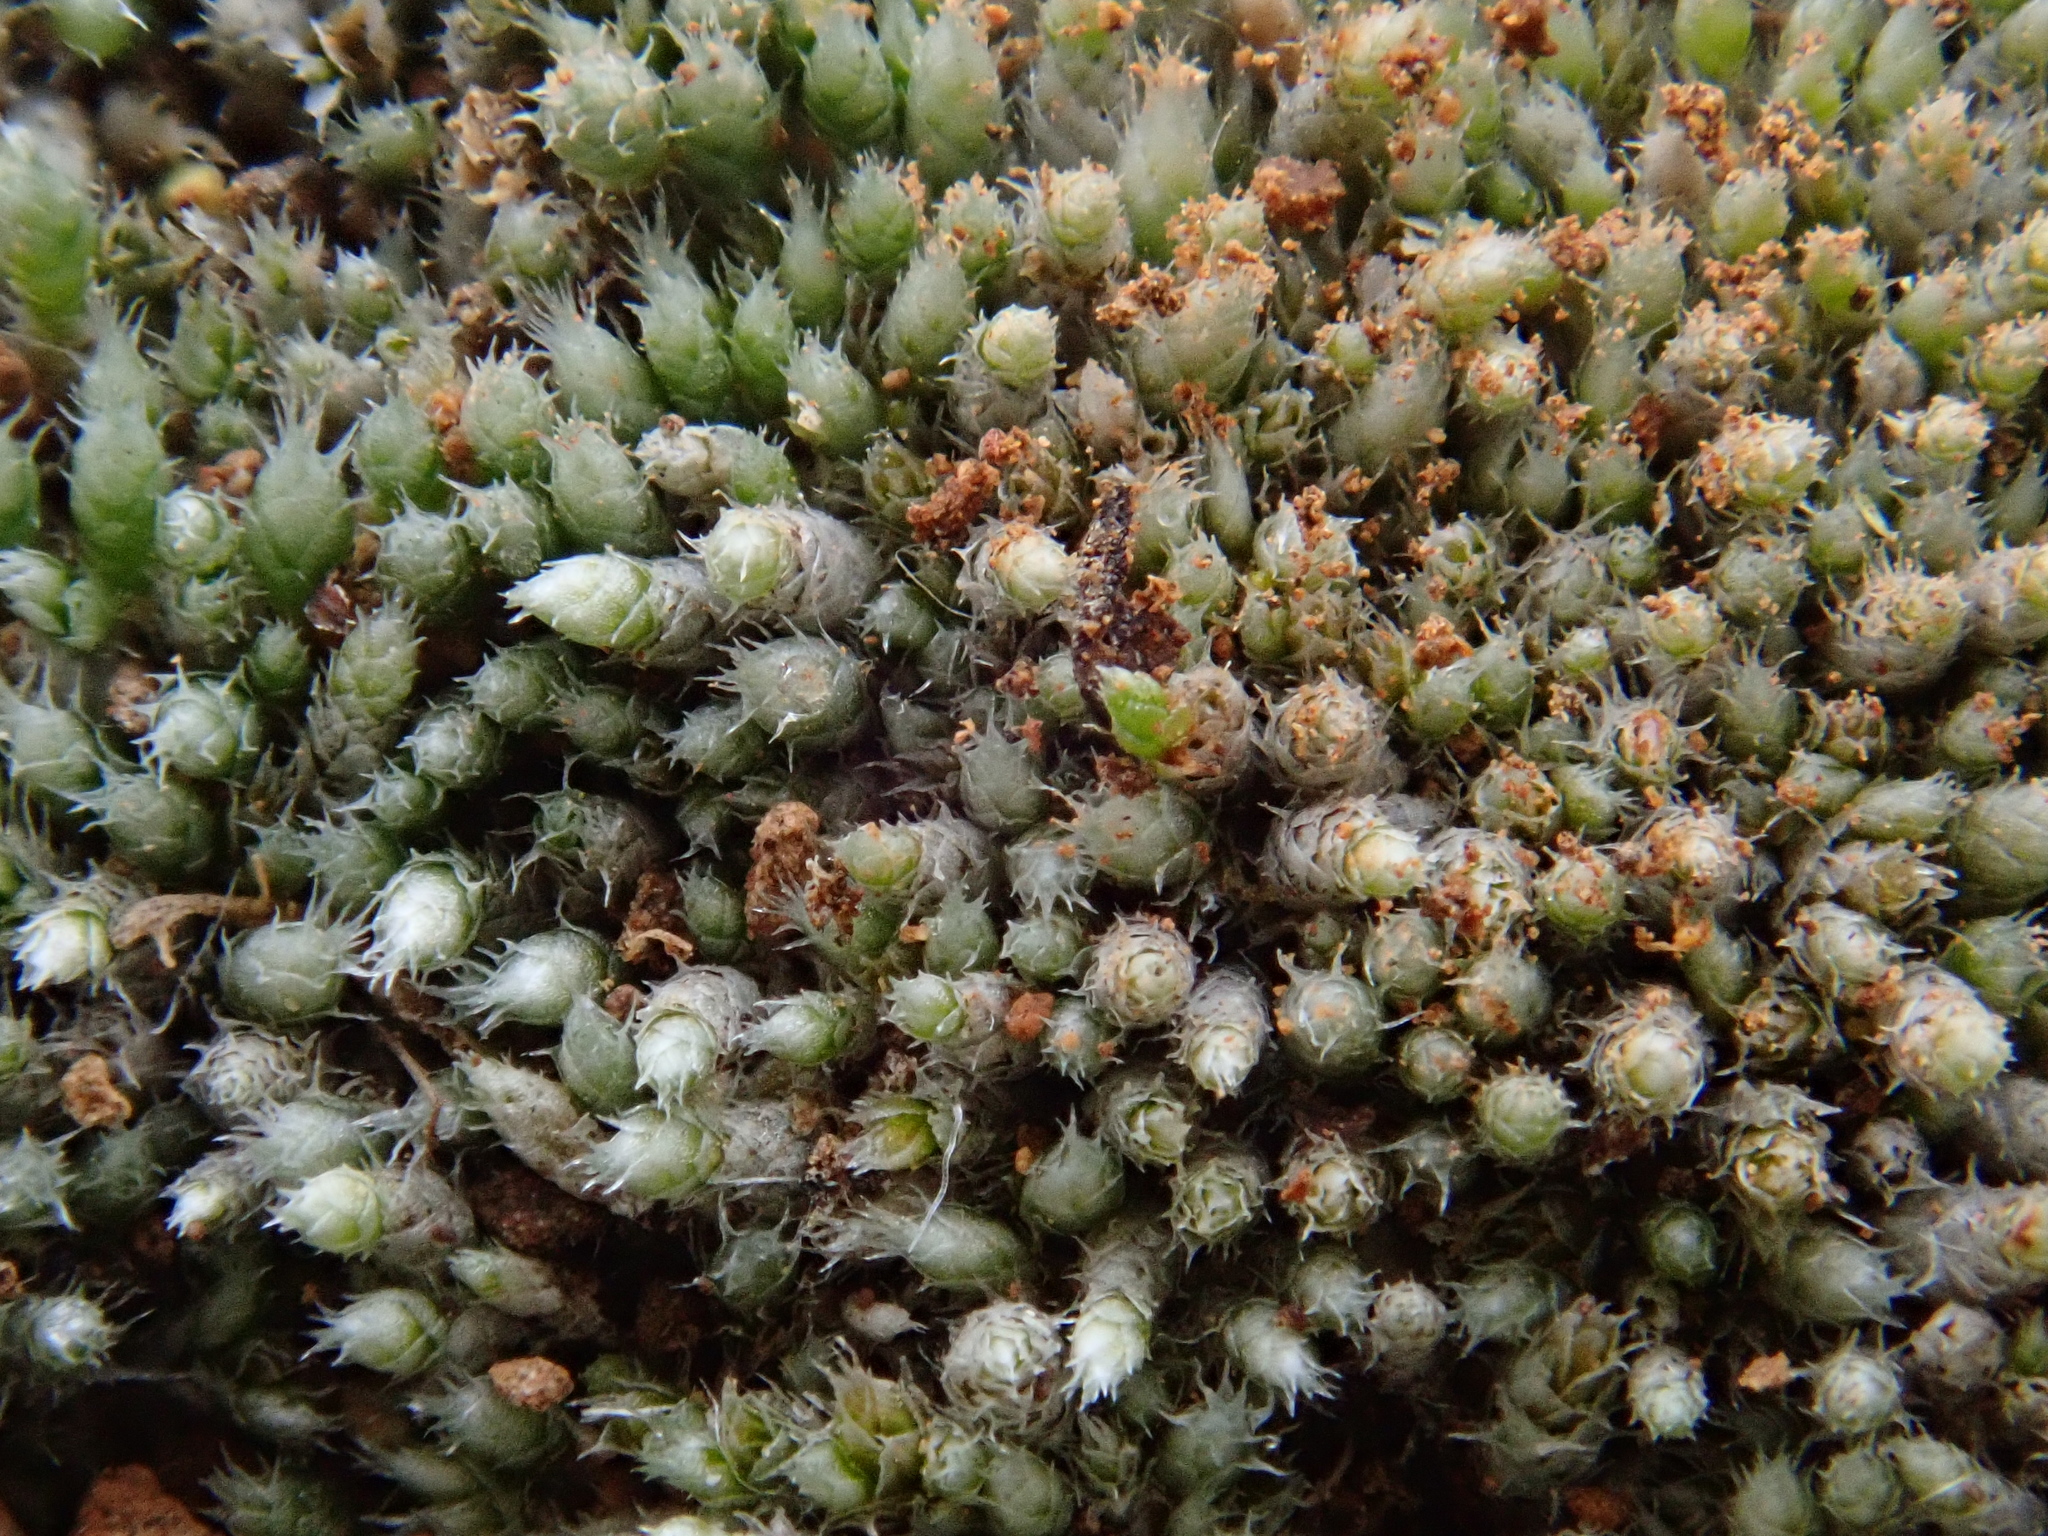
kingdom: Plantae
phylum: Bryophyta
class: Bryopsida
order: Bryales
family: Bryaceae
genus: Bryum
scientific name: Bryum argenteum
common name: Silver-moss
